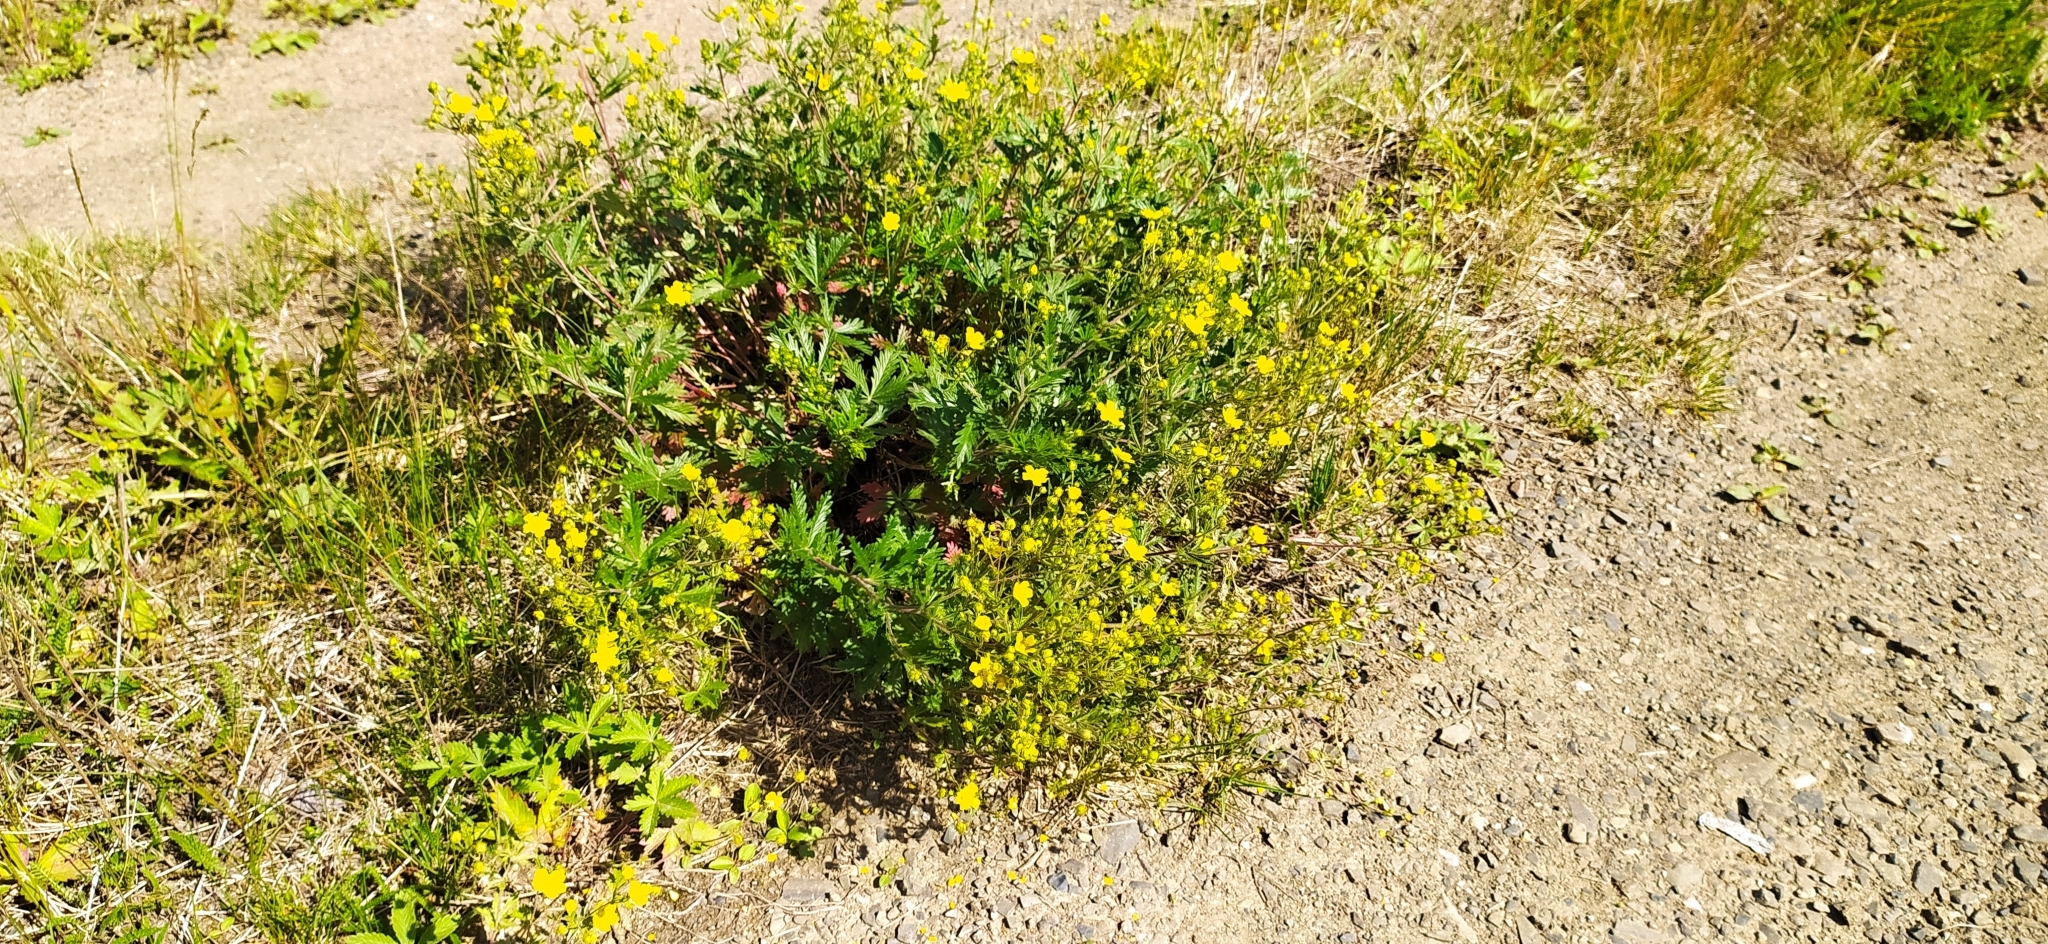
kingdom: Plantae
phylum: Tracheophyta
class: Magnoliopsida
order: Rosales
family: Rosaceae
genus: Potentilla
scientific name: Potentilla argentea
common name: Hoary cinquefoil
